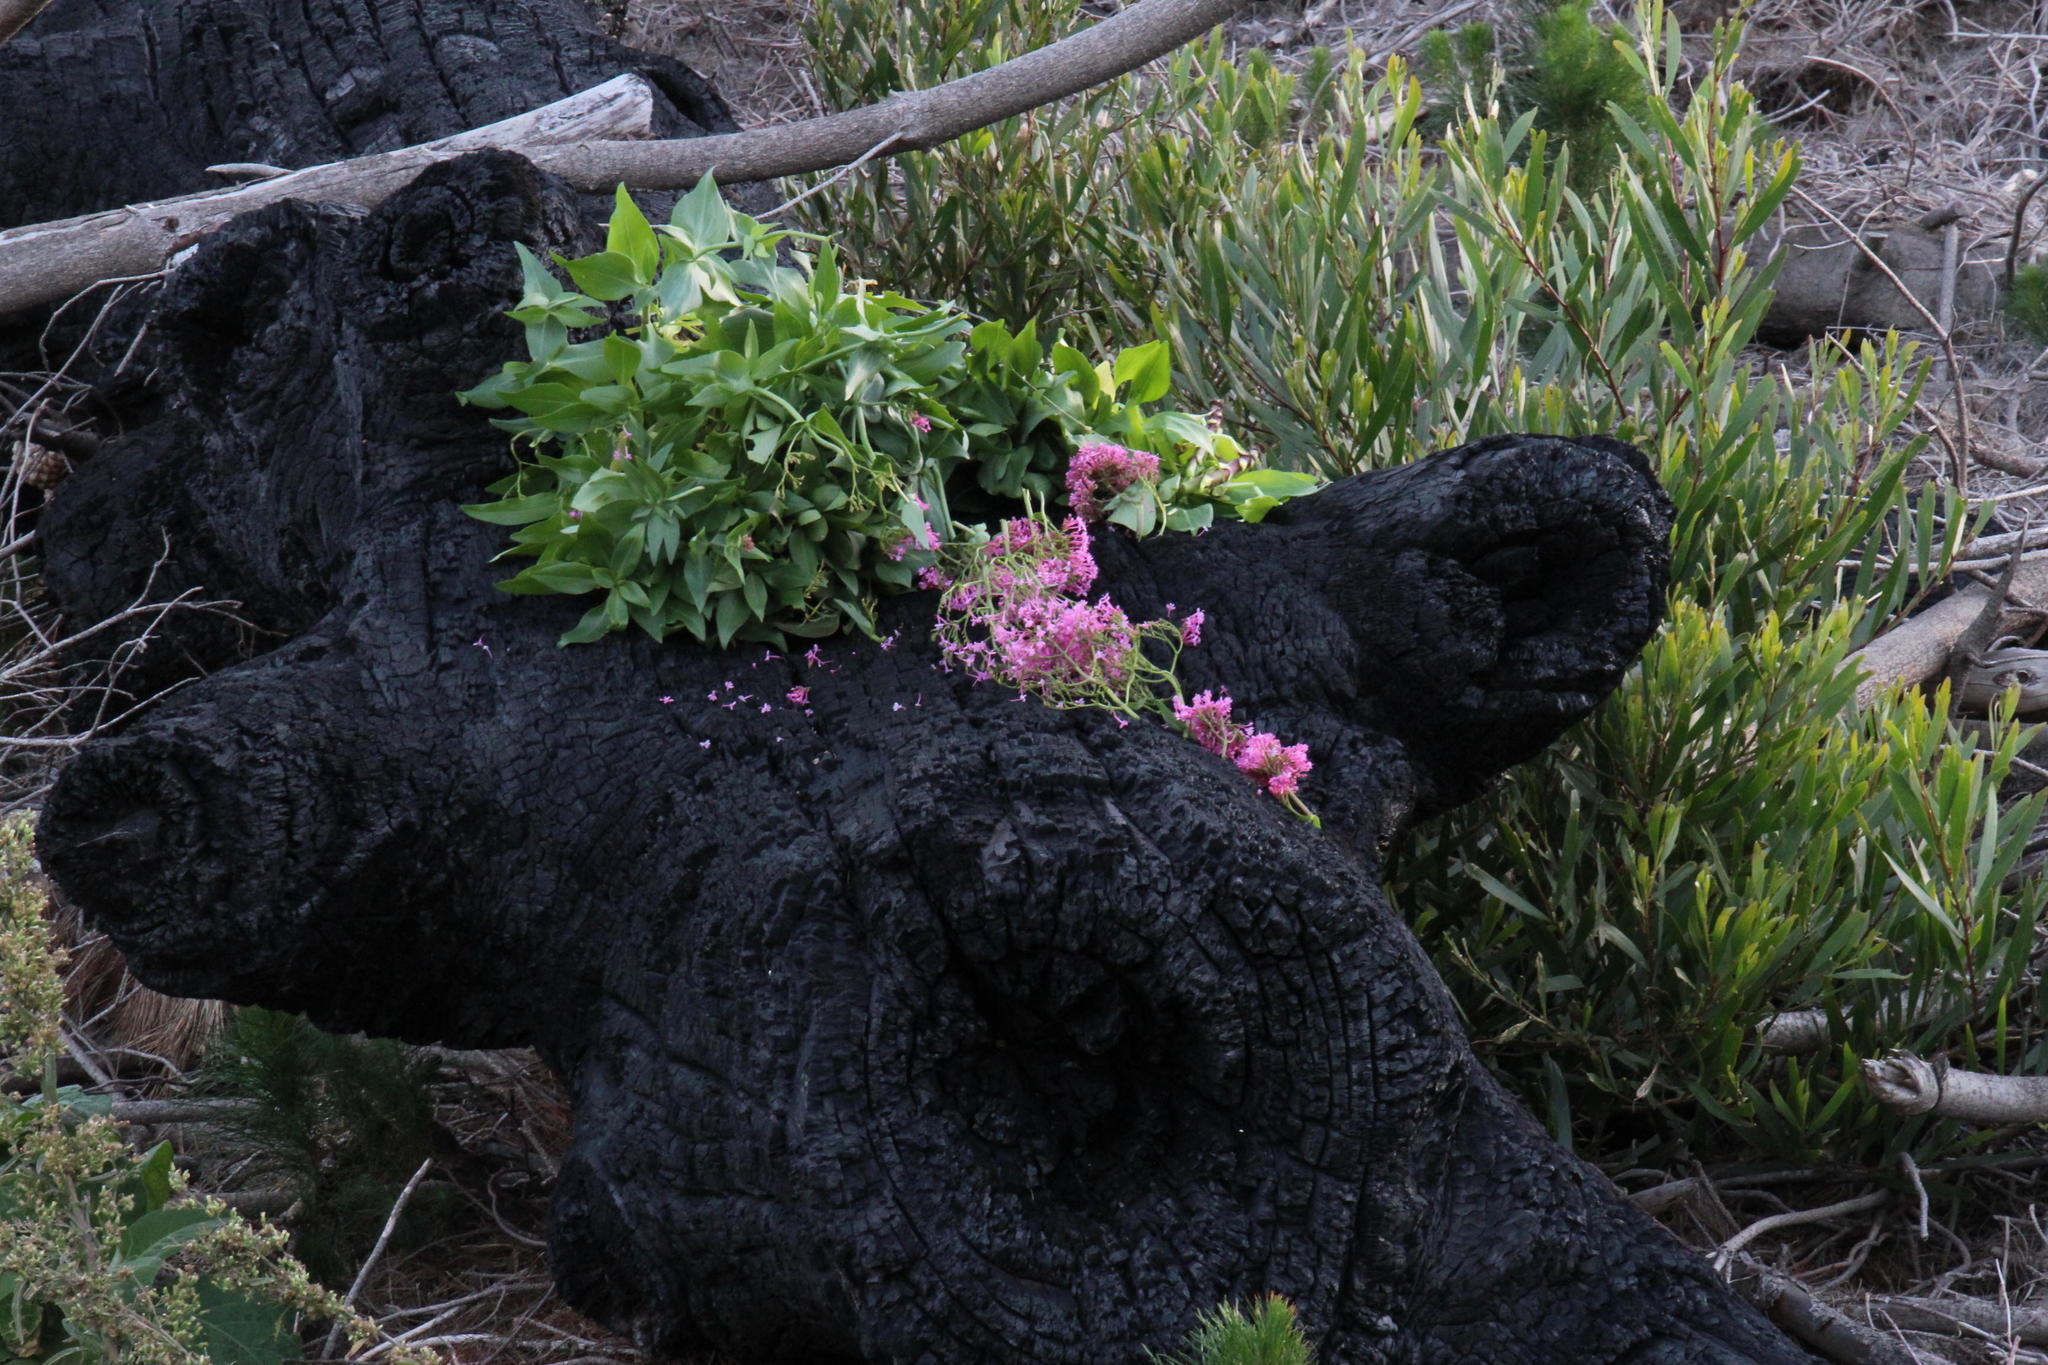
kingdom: Plantae
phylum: Tracheophyta
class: Magnoliopsida
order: Dipsacales
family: Caprifoliaceae
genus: Centranthus
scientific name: Centranthus ruber
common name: Red valerian
